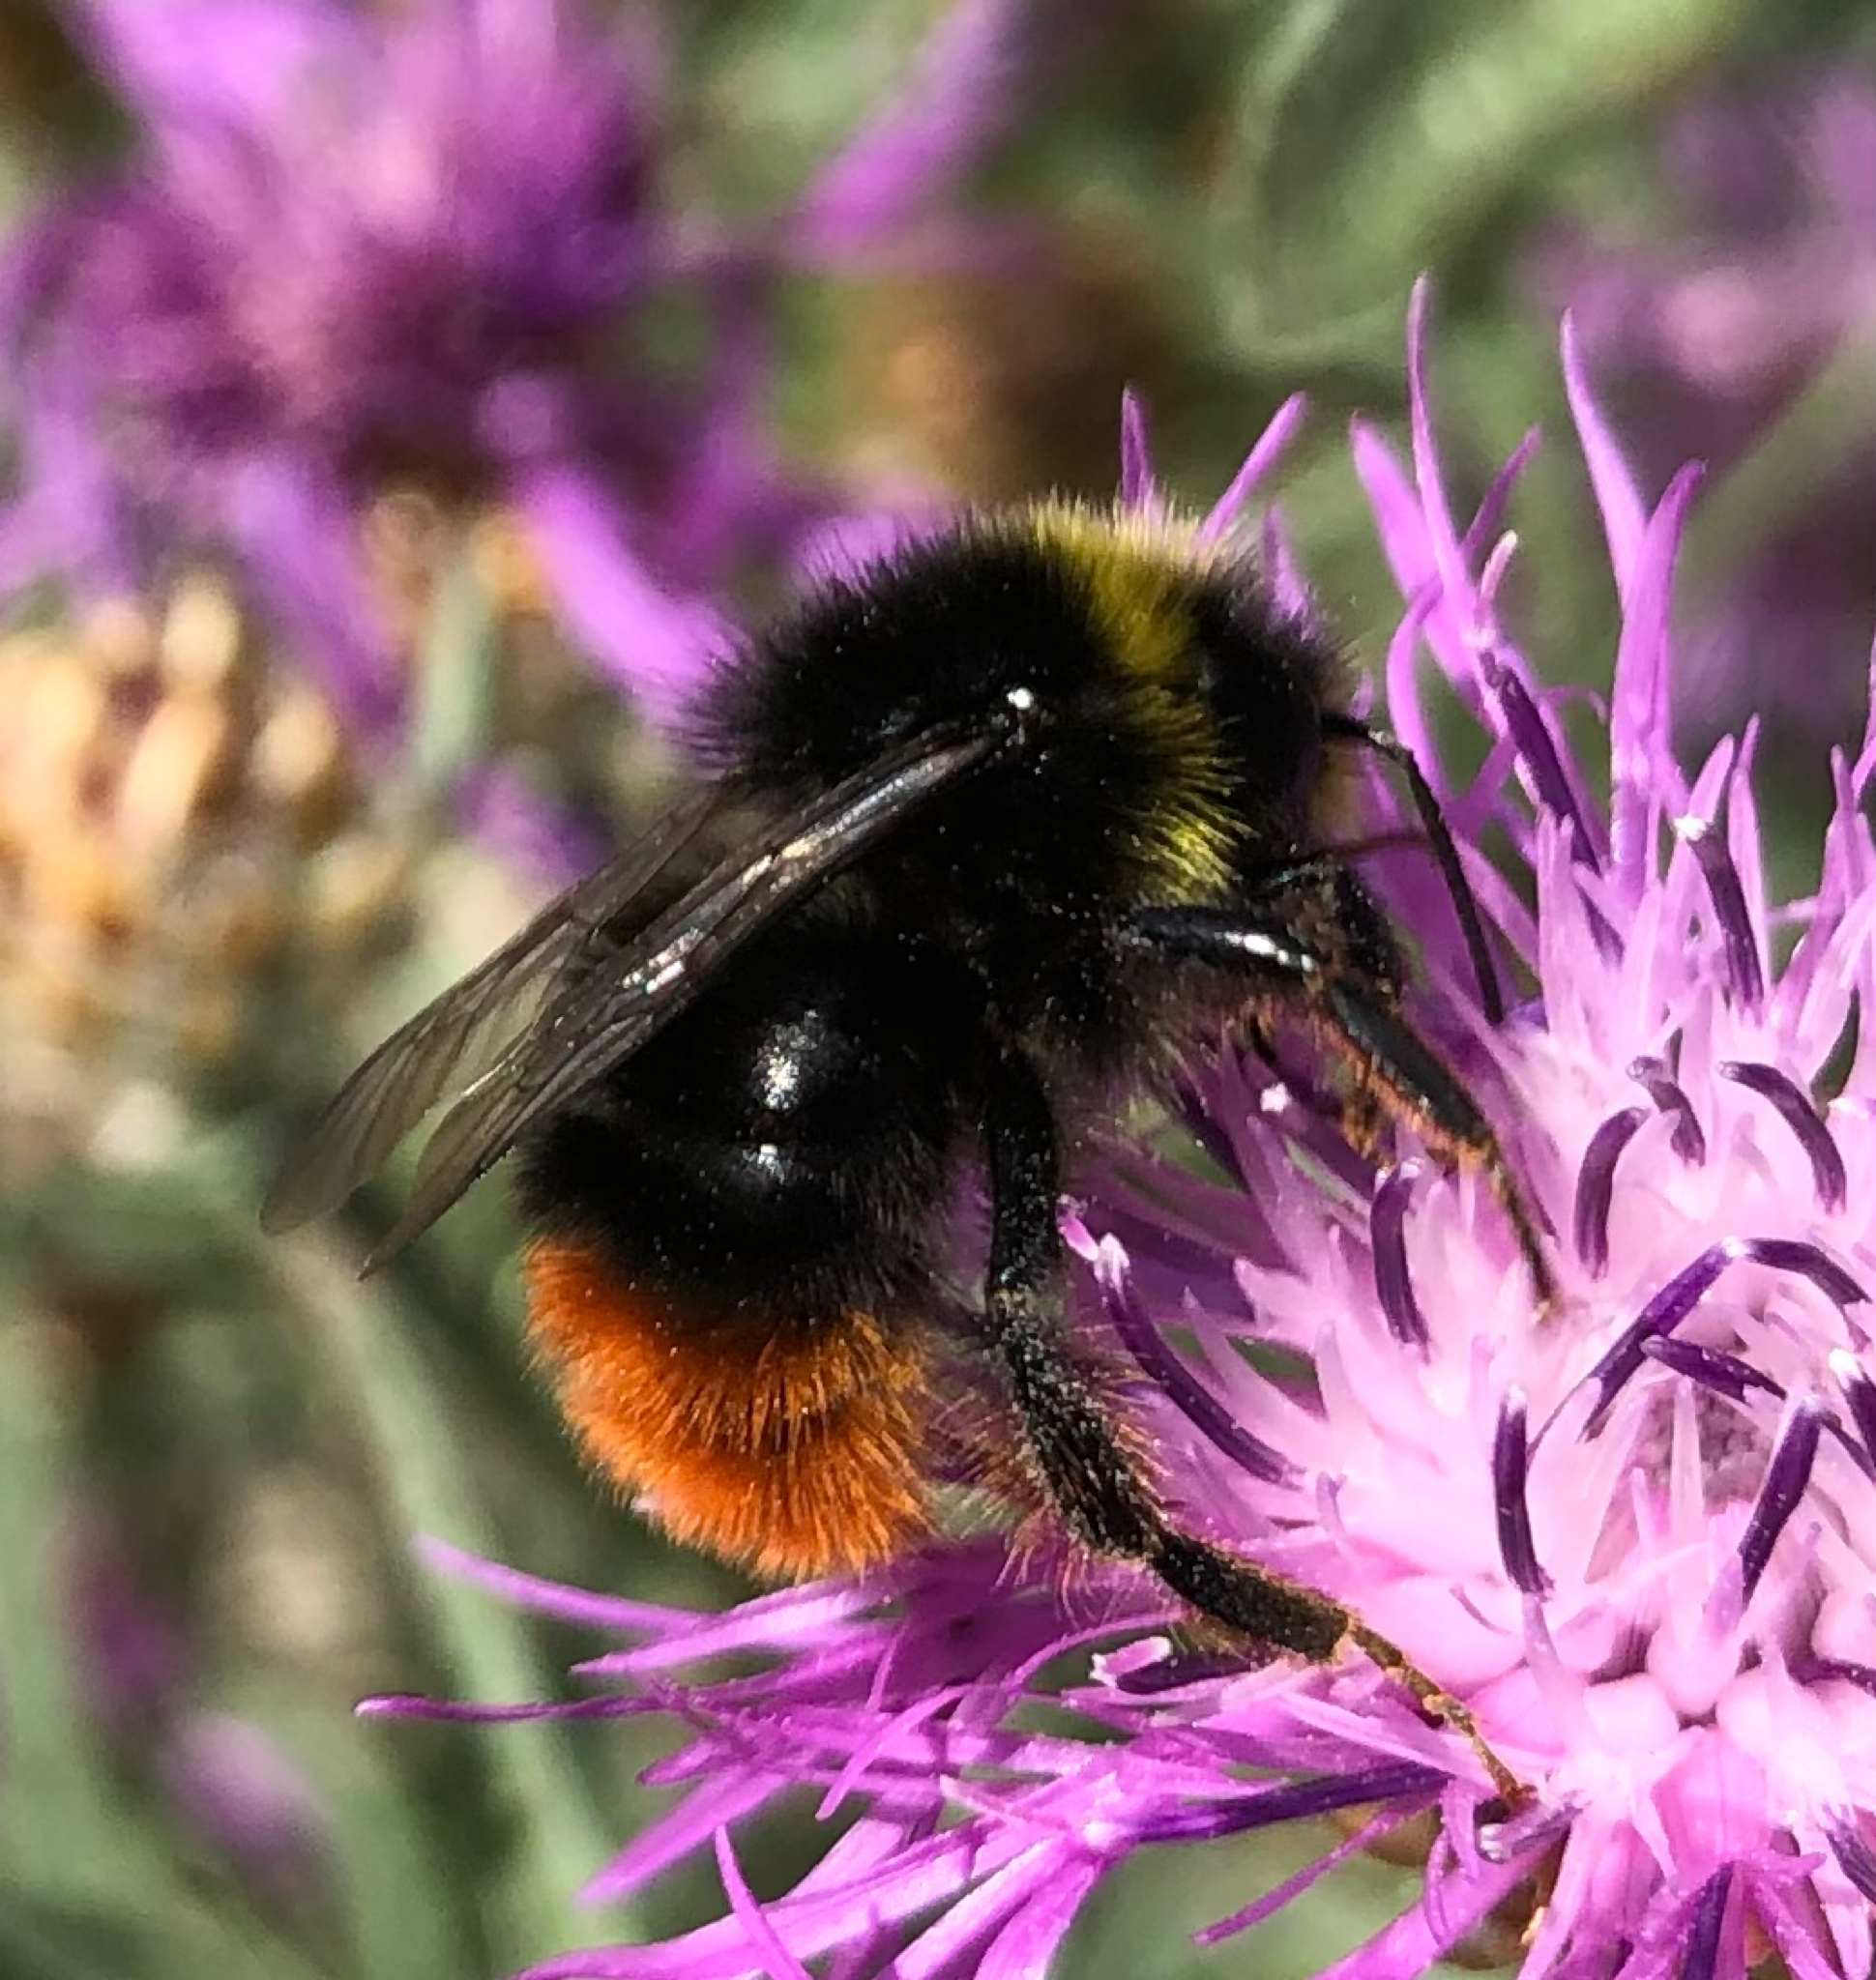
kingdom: Animalia
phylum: Arthropoda
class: Insecta
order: Hymenoptera
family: Apidae
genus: Bombus
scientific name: Bombus lapidarius
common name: Large red-tailed humble-bee
